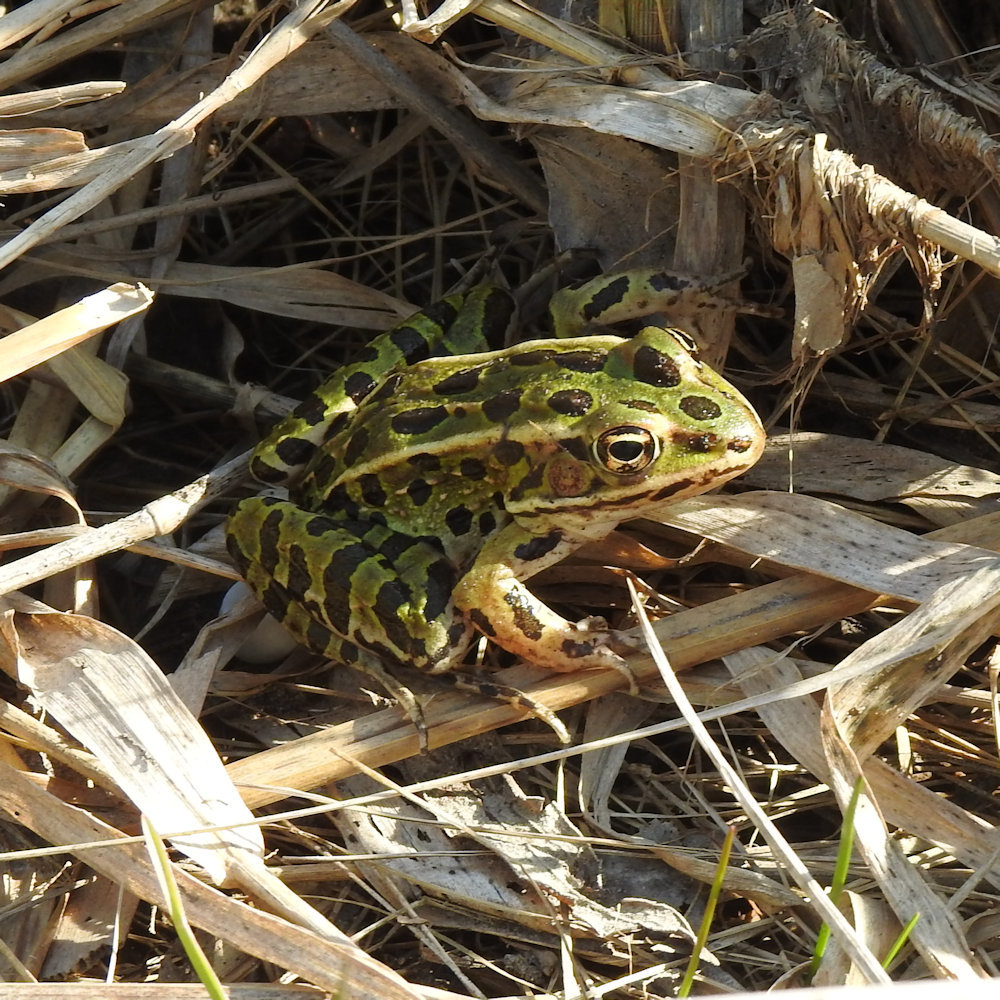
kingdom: Animalia
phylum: Chordata
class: Amphibia
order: Anura
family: Ranidae
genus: Lithobates
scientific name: Lithobates pipiens
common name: Northern leopard frog
